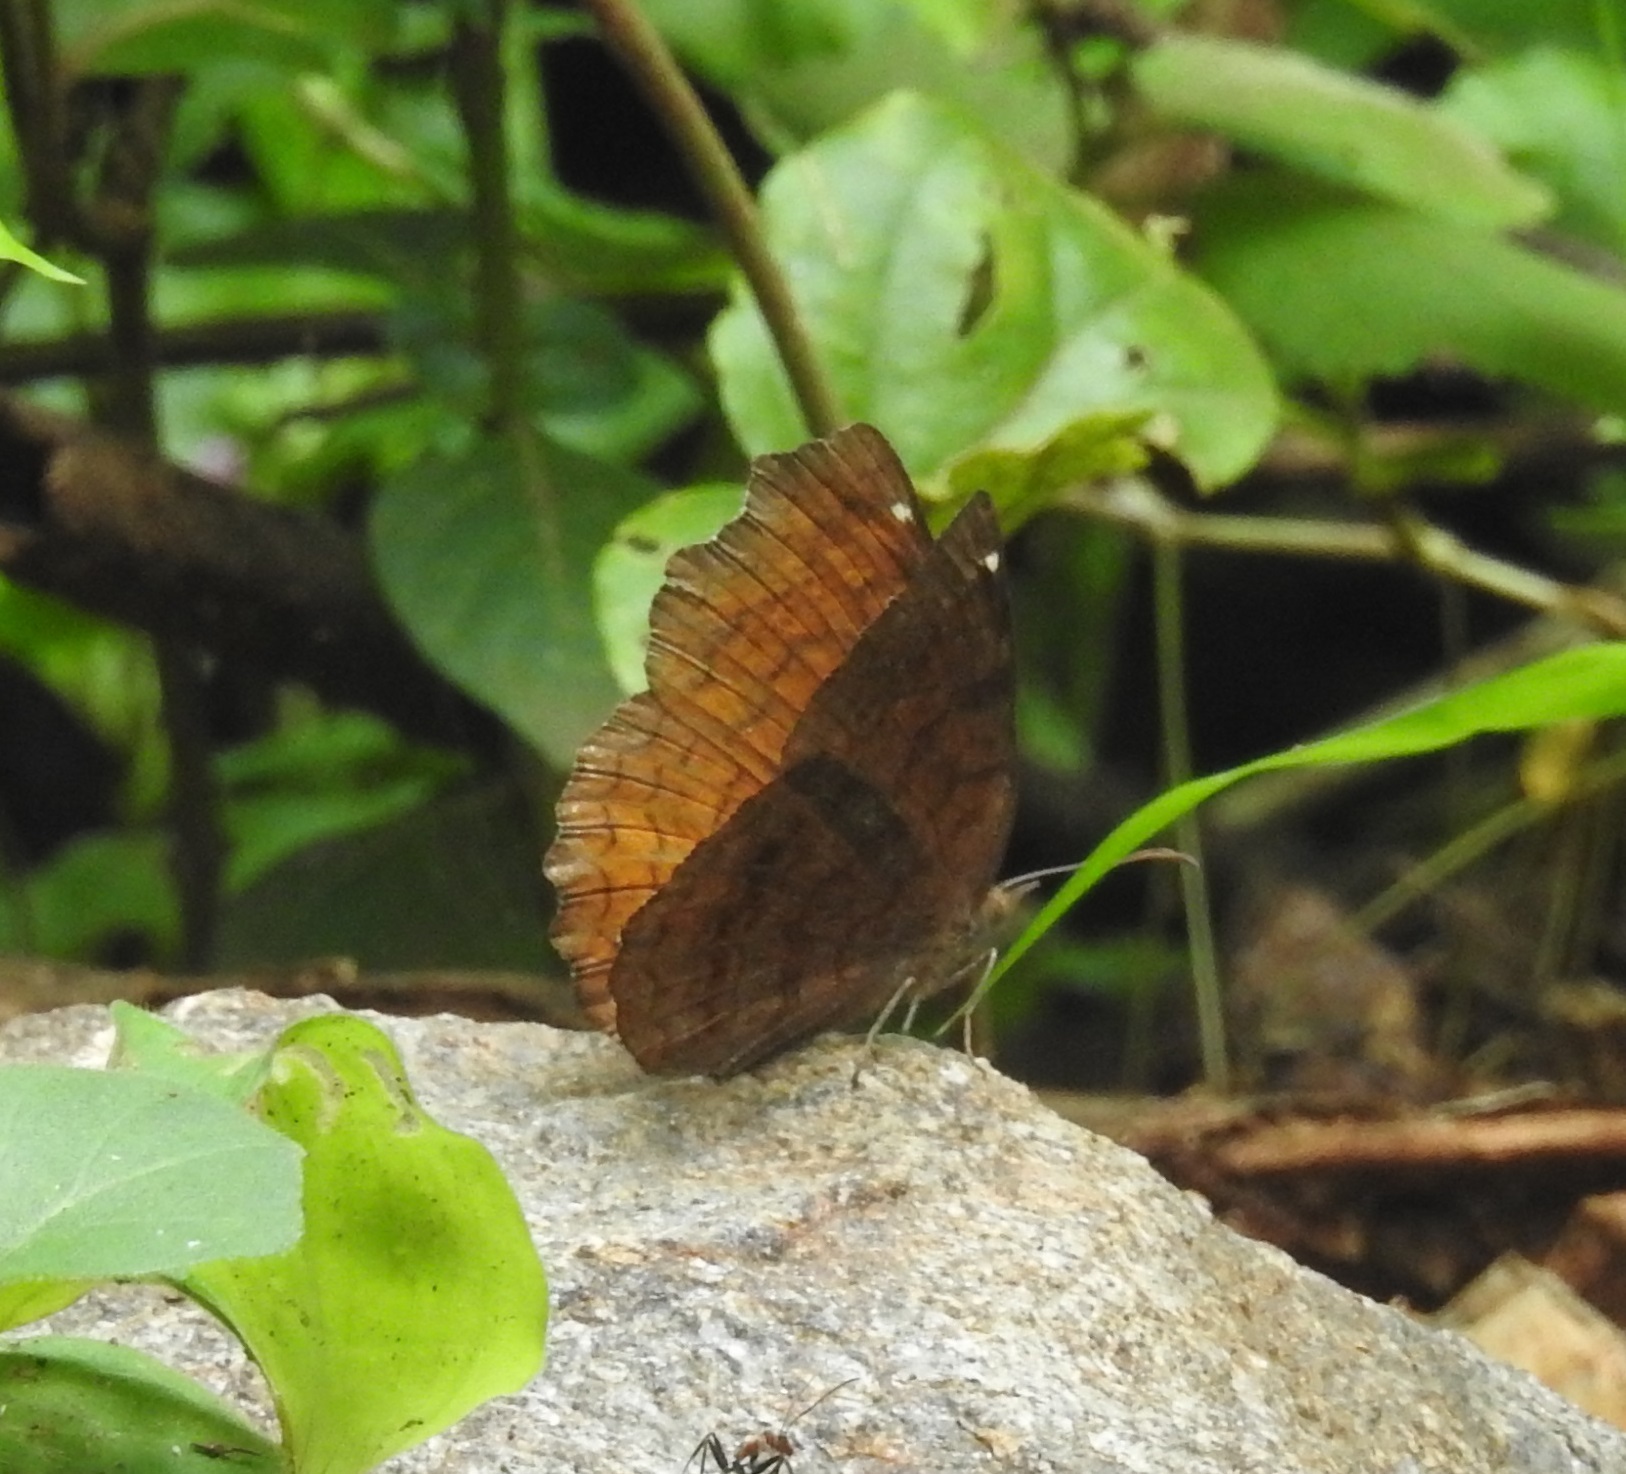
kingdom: Animalia
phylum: Arthropoda
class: Insecta
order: Lepidoptera
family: Nymphalidae
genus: Ariadne
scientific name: Ariadne ariadne
